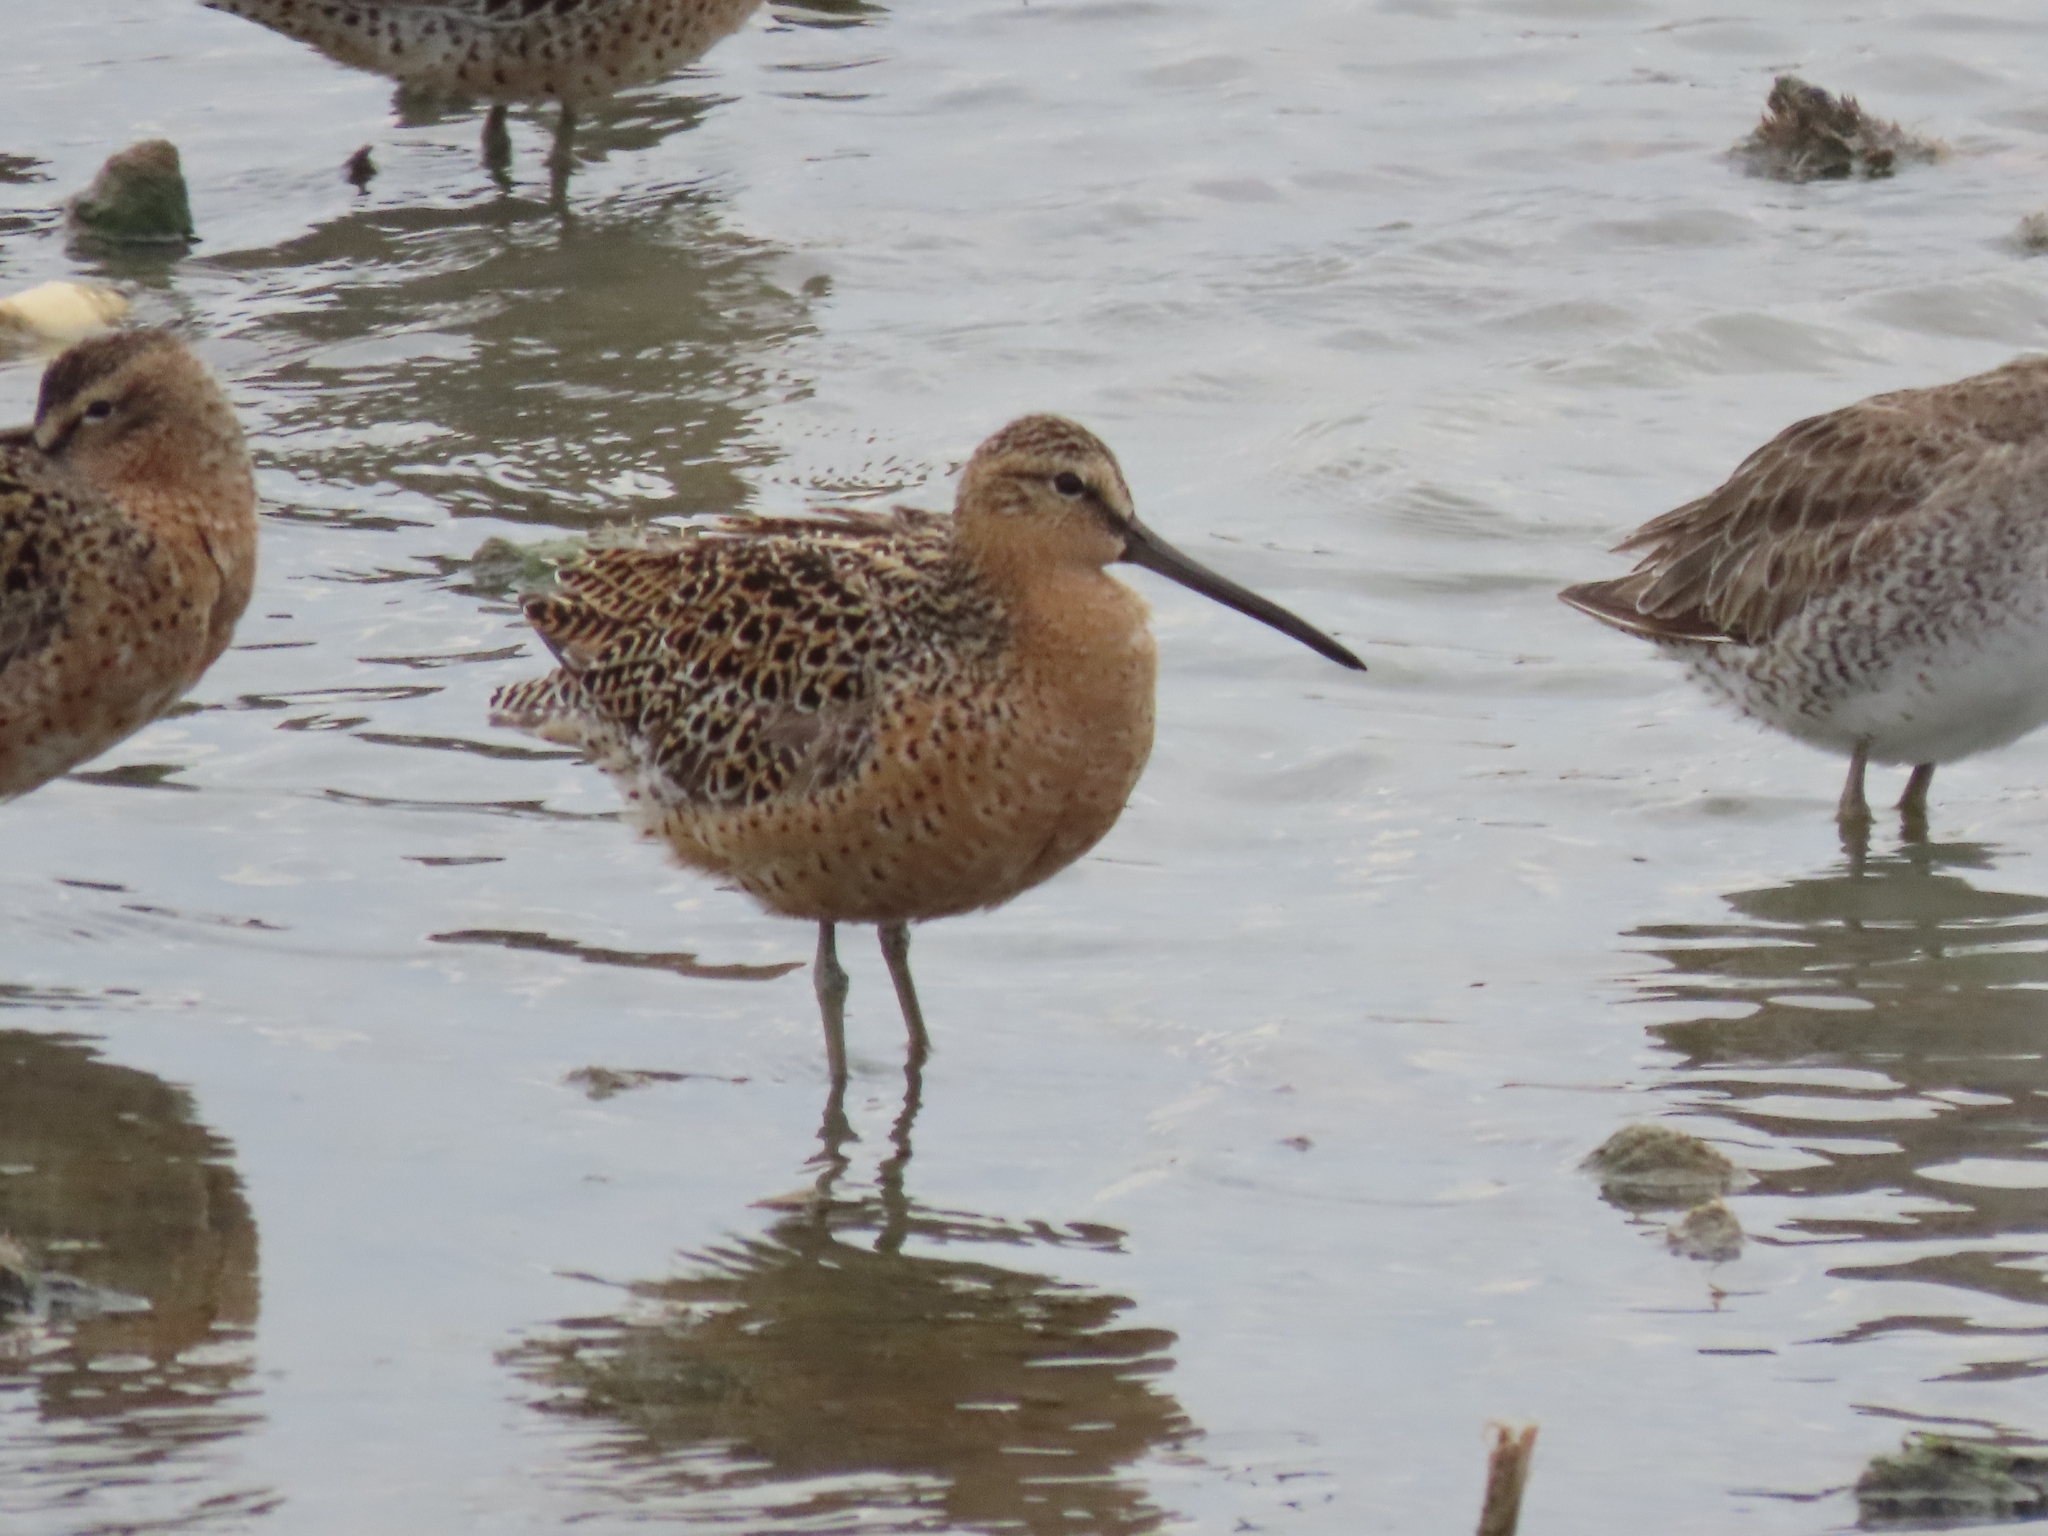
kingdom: Animalia
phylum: Chordata
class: Aves
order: Charadriiformes
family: Scolopacidae
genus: Limnodromus
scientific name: Limnodromus griseus
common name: Short-billed dowitcher
